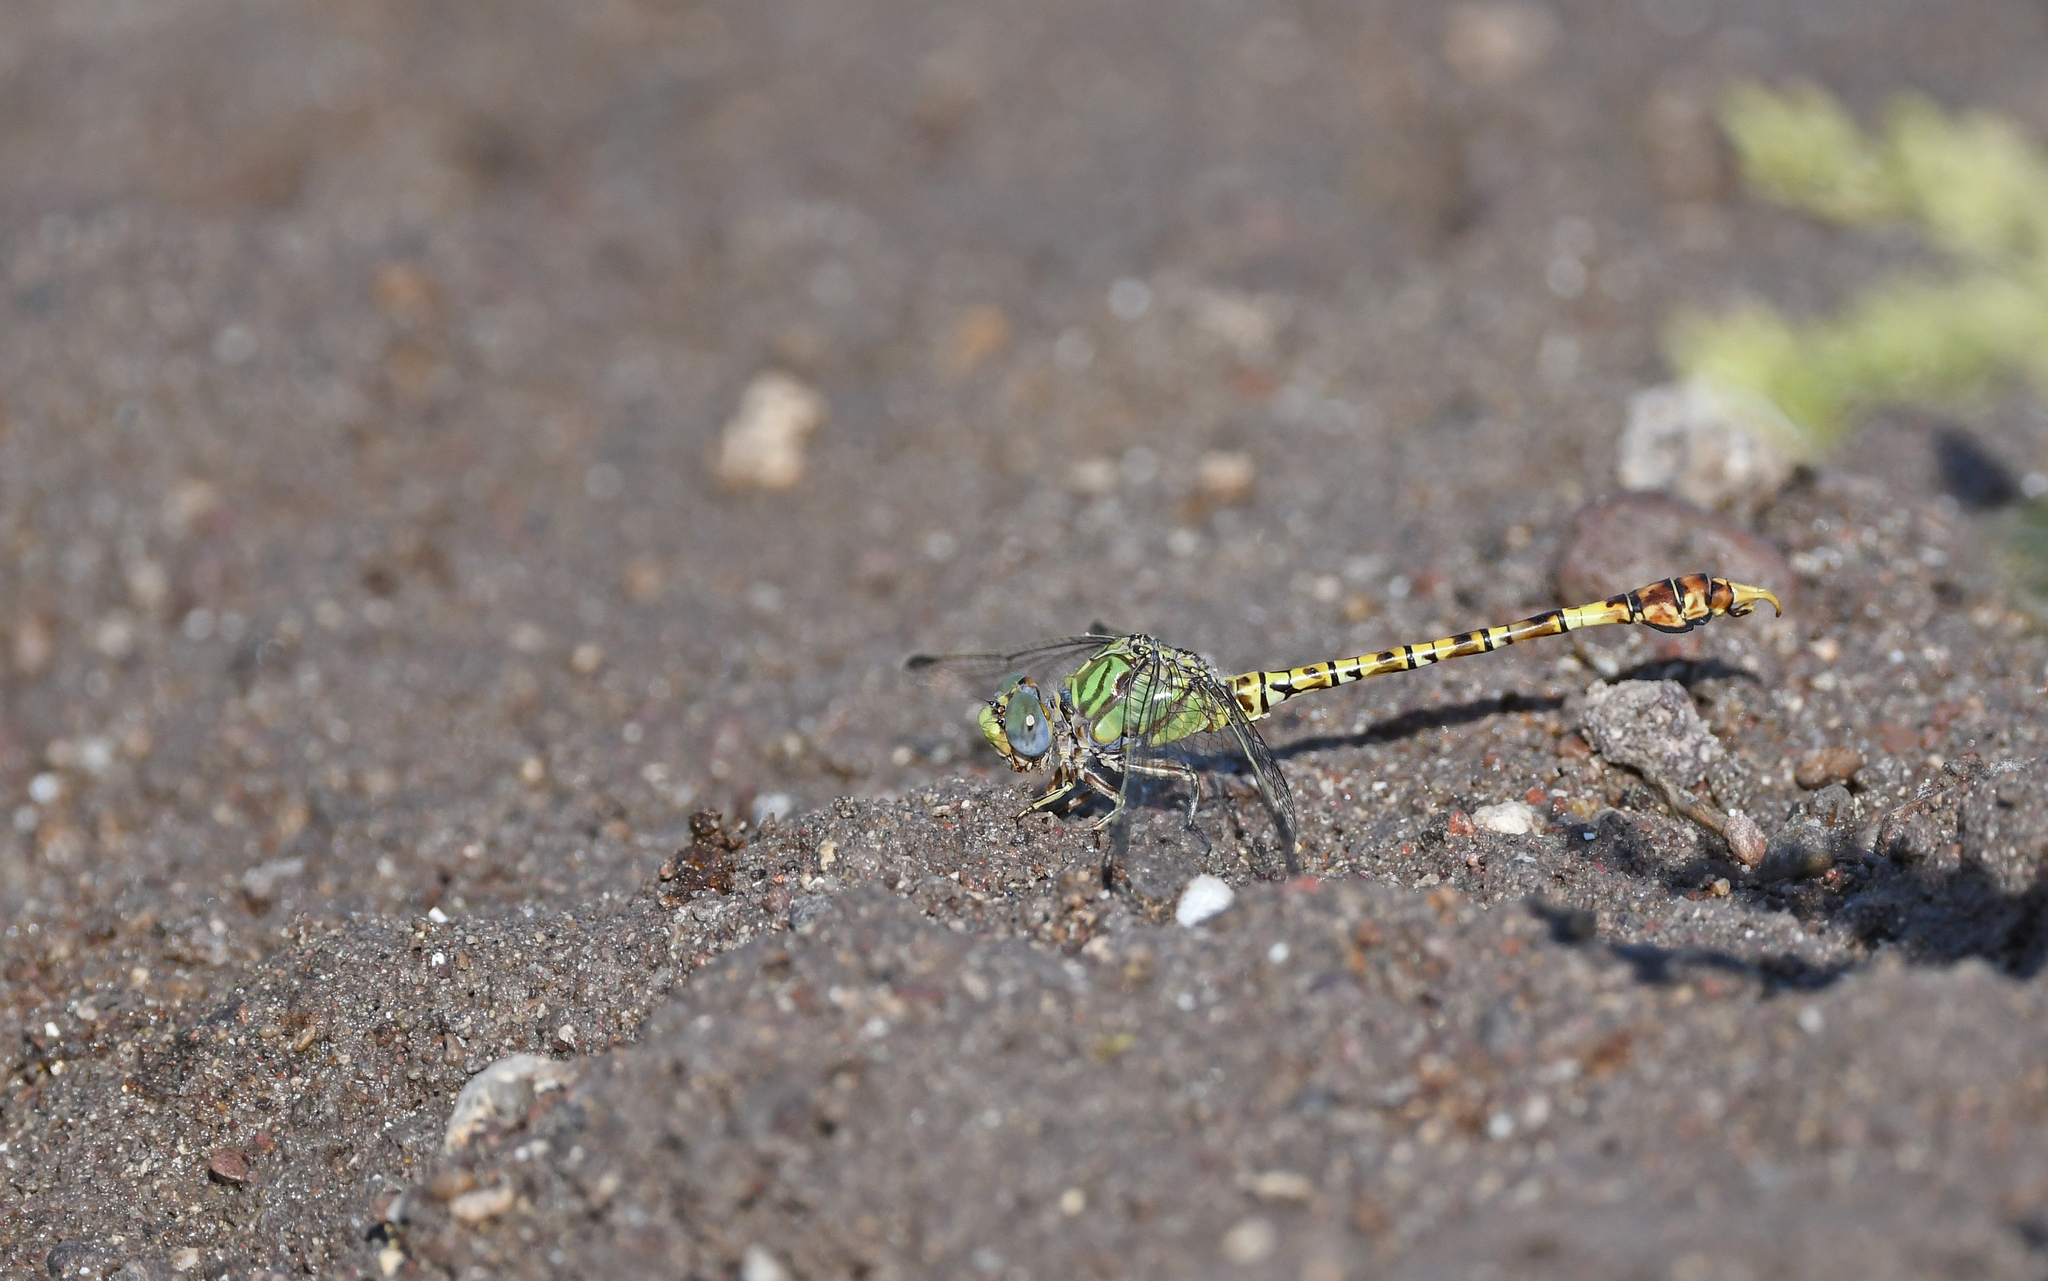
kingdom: Animalia
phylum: Arthropoda
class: Insecta
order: Odonata
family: Gomphidae
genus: Paragomphus
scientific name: Paragomphus genei
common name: Common hooktail
